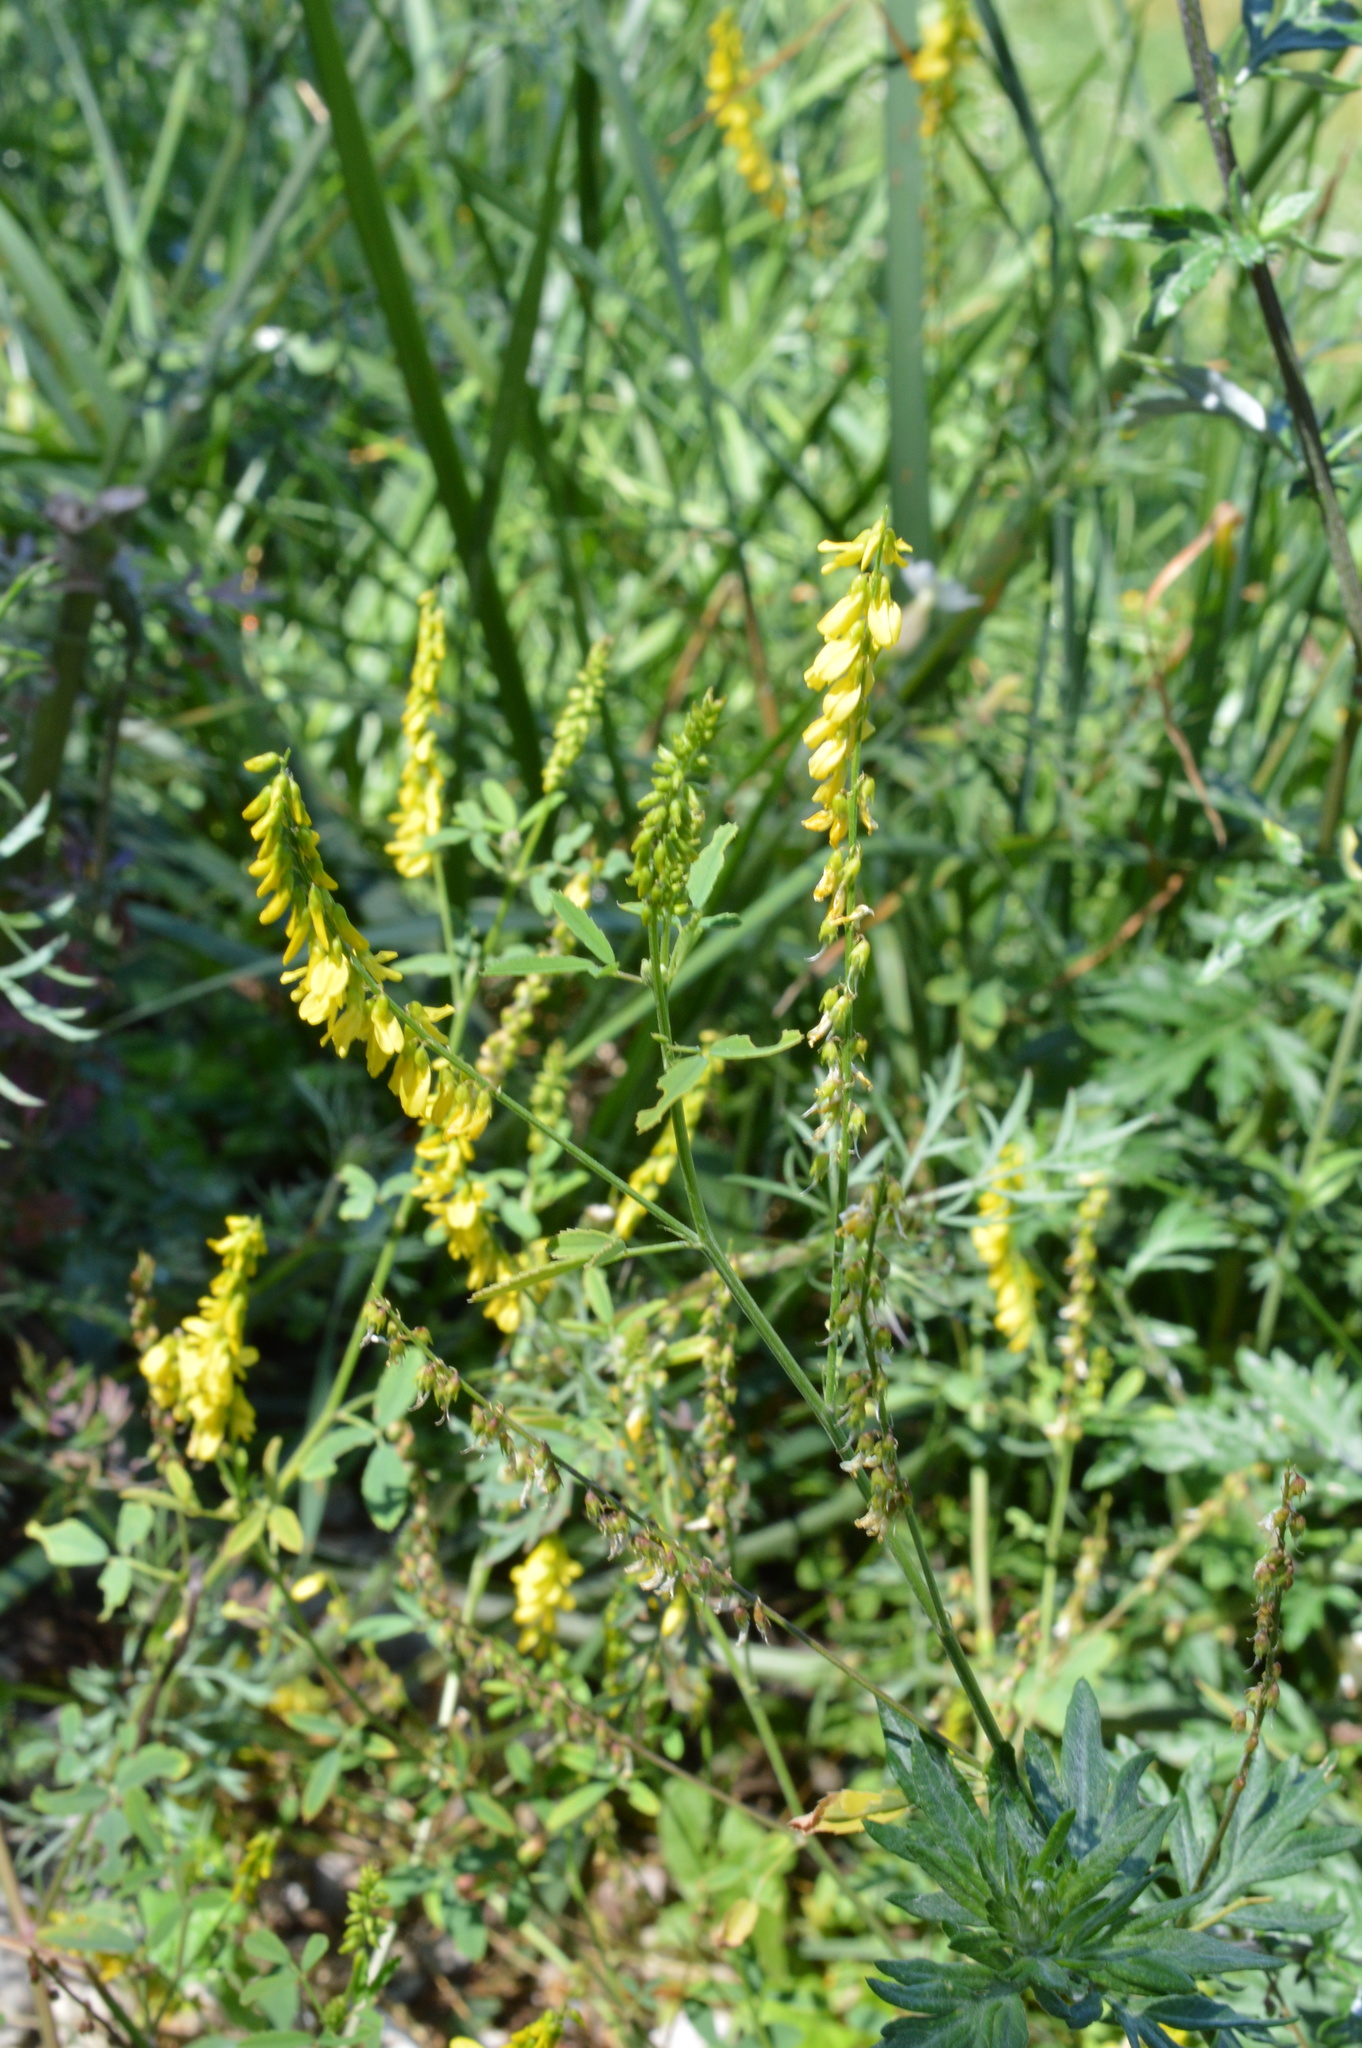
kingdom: Plantae
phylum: Tracheophyta
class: Magnoliopsida
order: Fabales
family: Fabaceae
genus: Melilotus
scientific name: Melilotus officinalis
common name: Sweetclover
